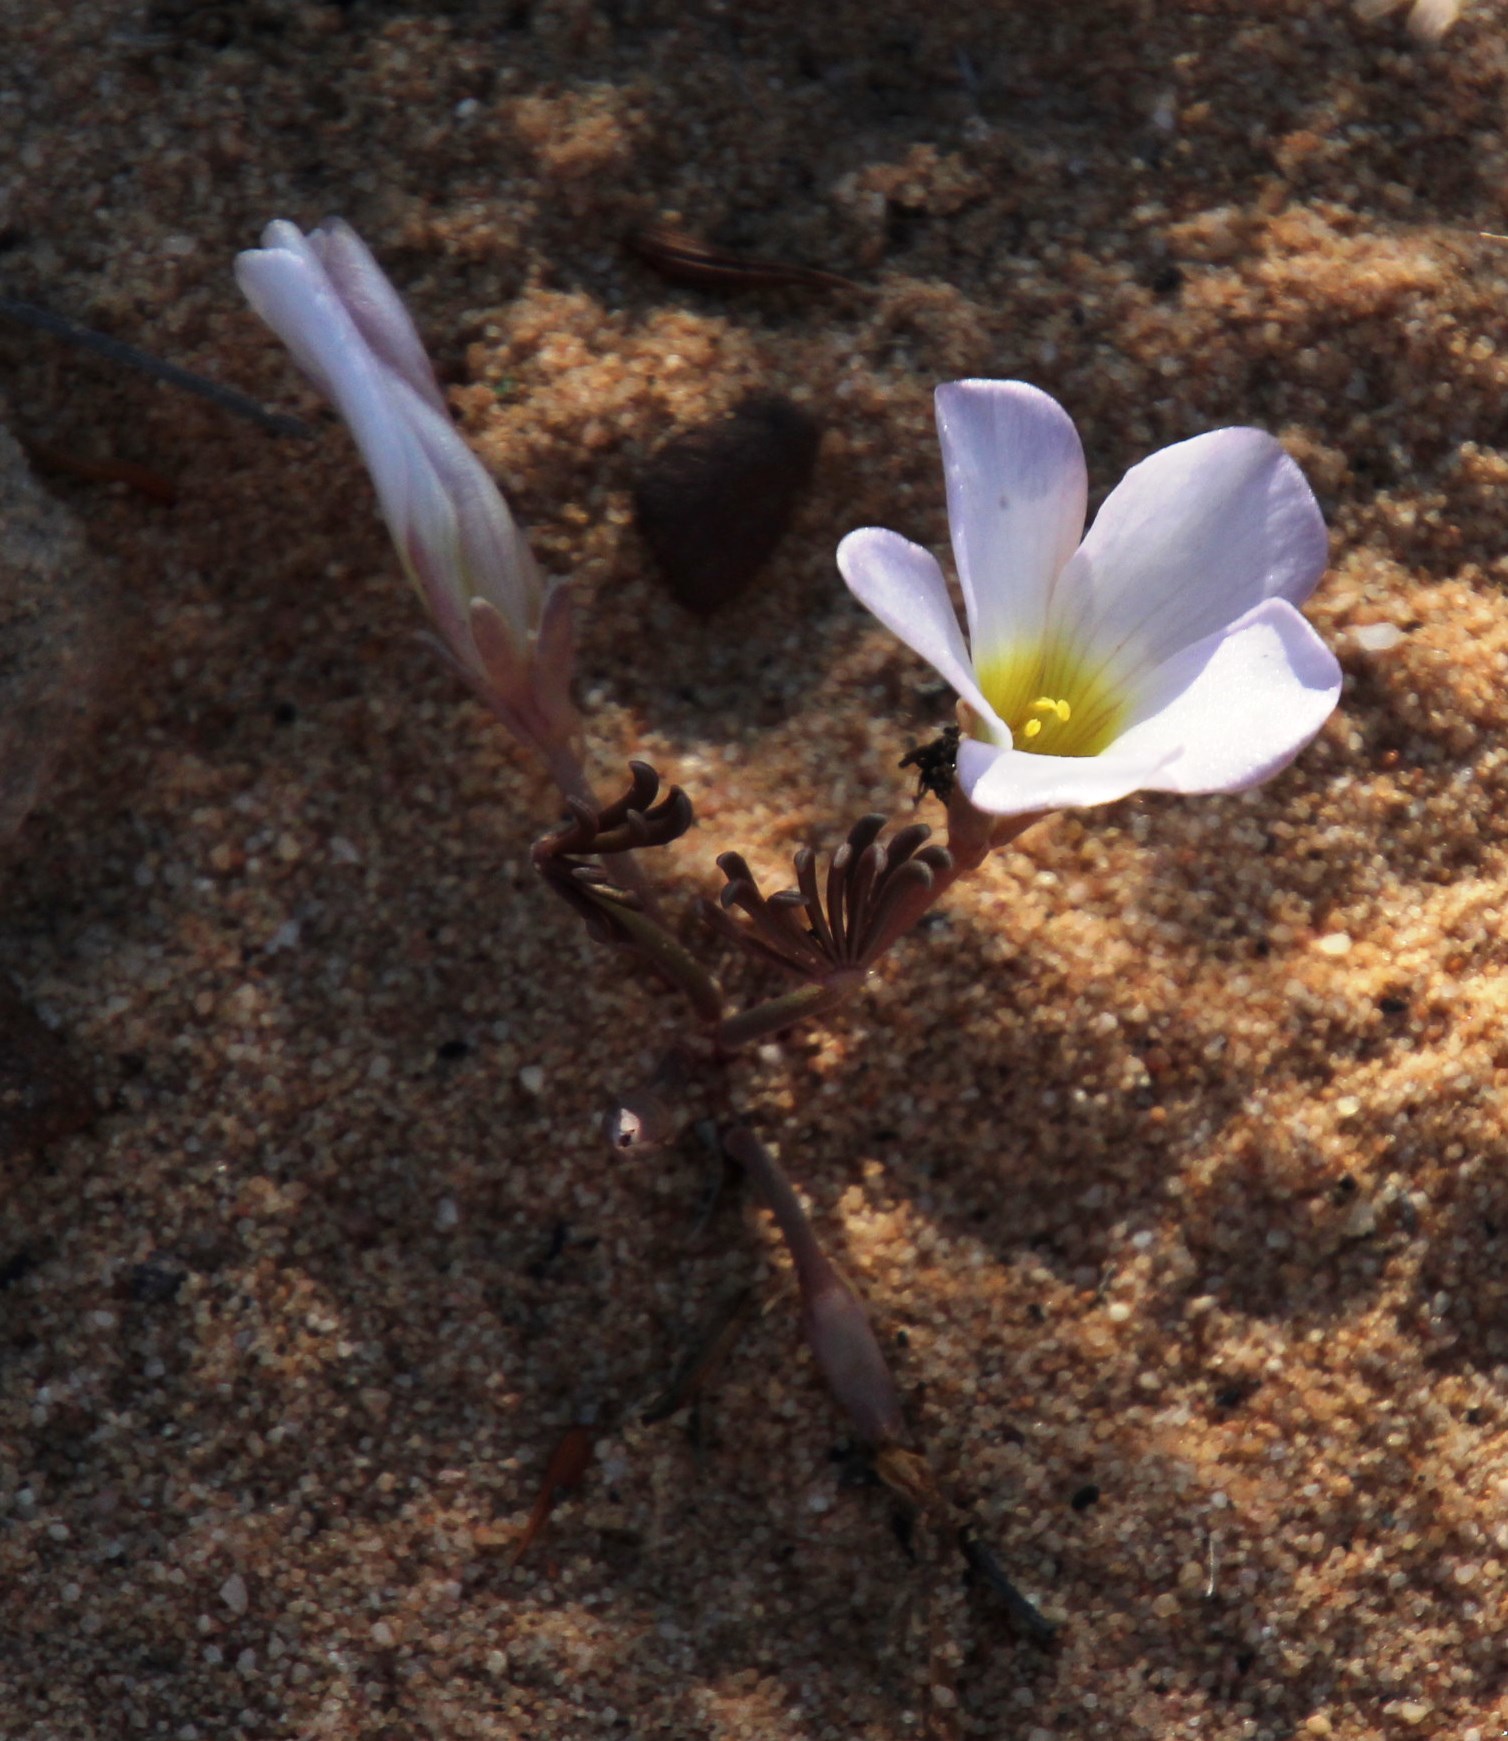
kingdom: Plantae
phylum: Tracheophyta
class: Magnoliopsida
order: Oxalidales
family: Oxalidaceae
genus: Oxalis
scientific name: Oxalis flava
